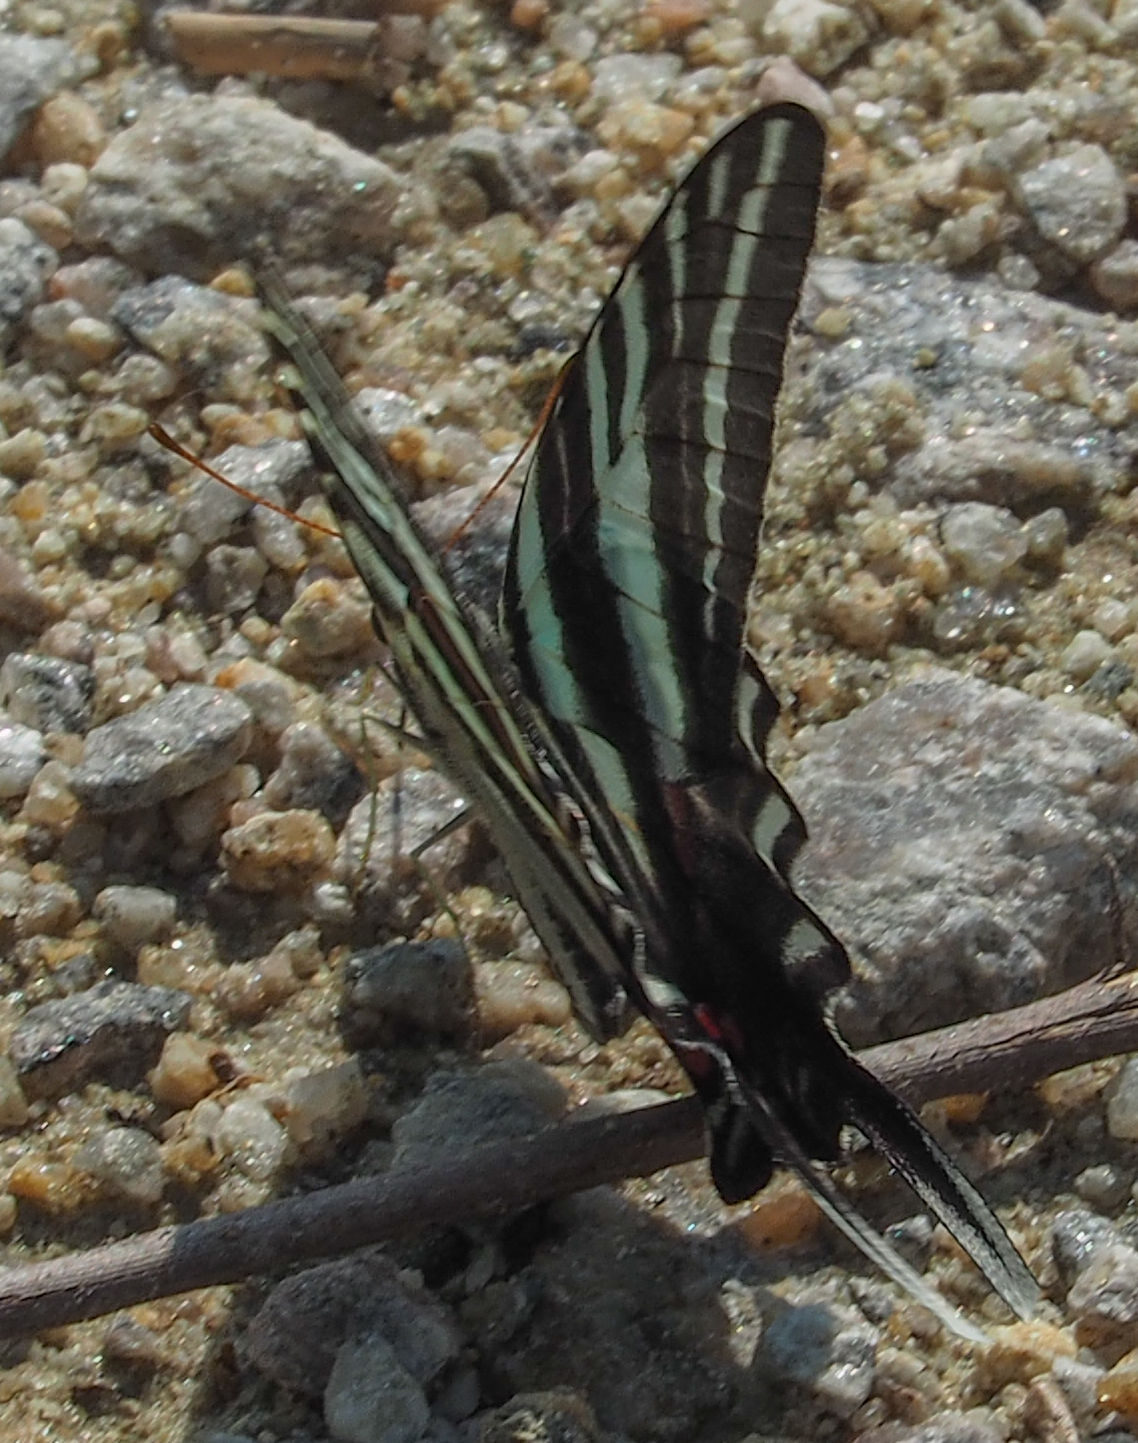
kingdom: Animalia
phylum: Arthropoda
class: Insecta
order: Lepidoptera
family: Papilionidae
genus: Protographium
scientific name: Protographium marcellus
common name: Zebra swallowtail
